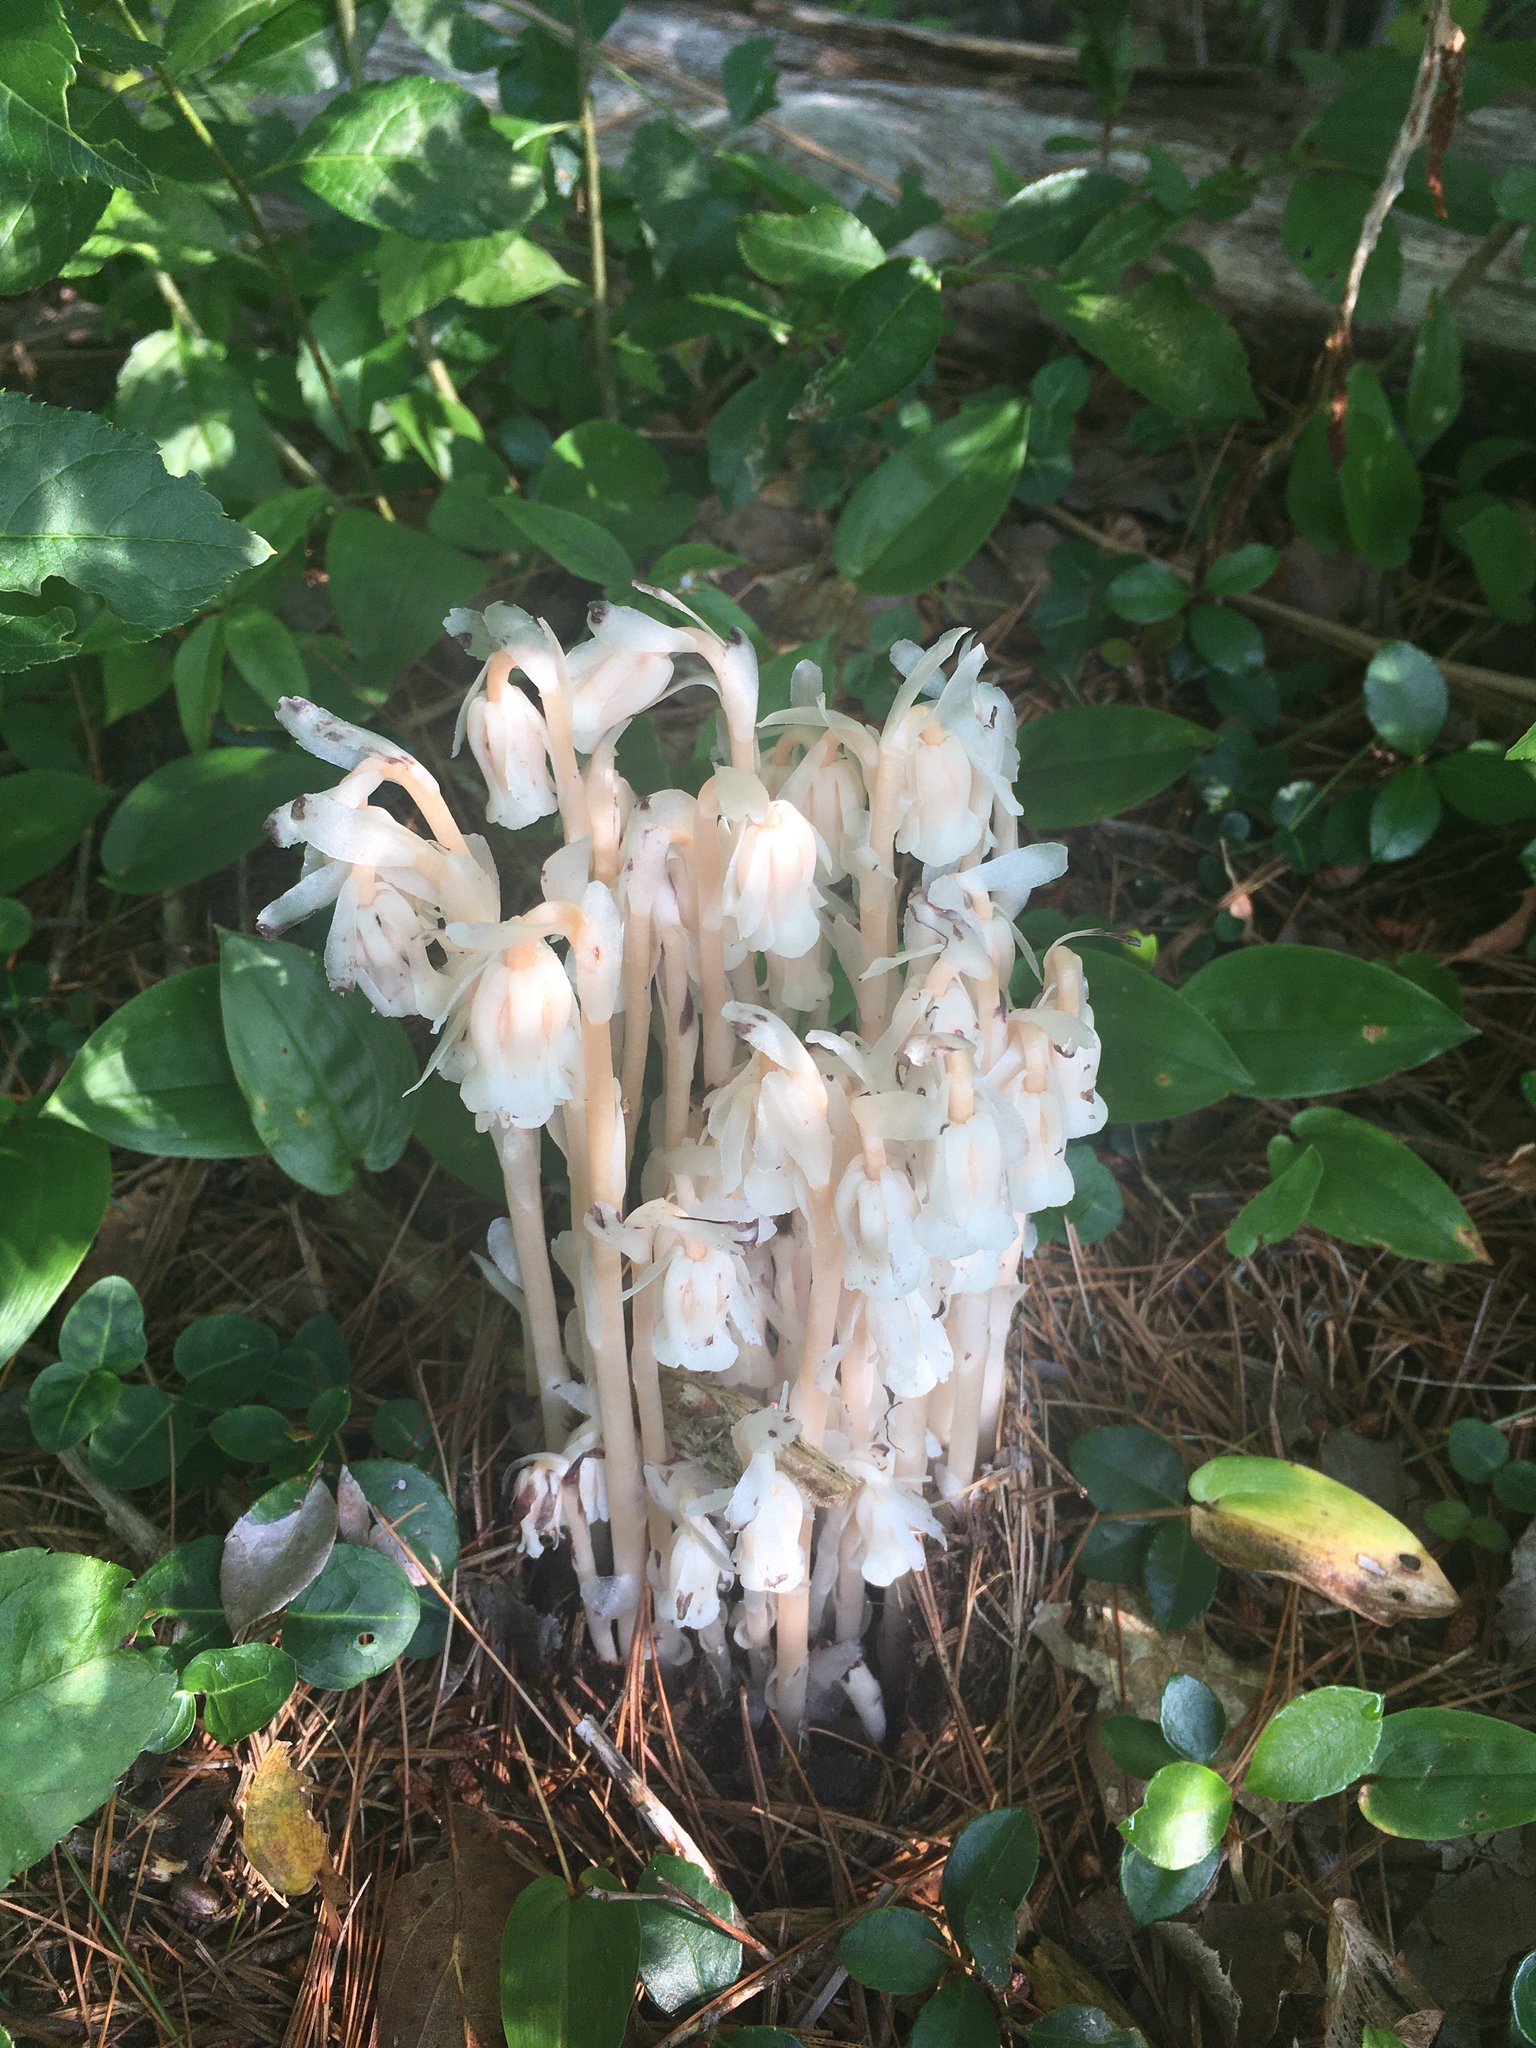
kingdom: Plantae
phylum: Tracheophyta
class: Magnoliopsida
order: Ericales
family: Ericaceae
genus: Monotropa
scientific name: Monotropa uniflora
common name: Convulsion root
